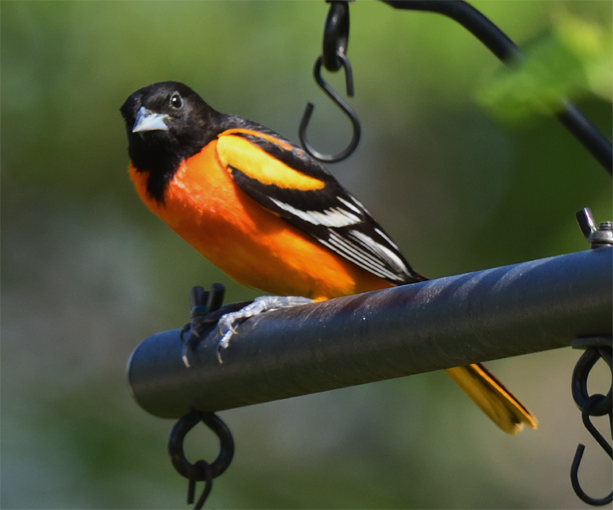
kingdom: Animalia
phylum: Chordata
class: Aves
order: Passeriformes
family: Icteridae
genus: Icterus
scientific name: Icterus galbula
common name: Baltimore oriole
